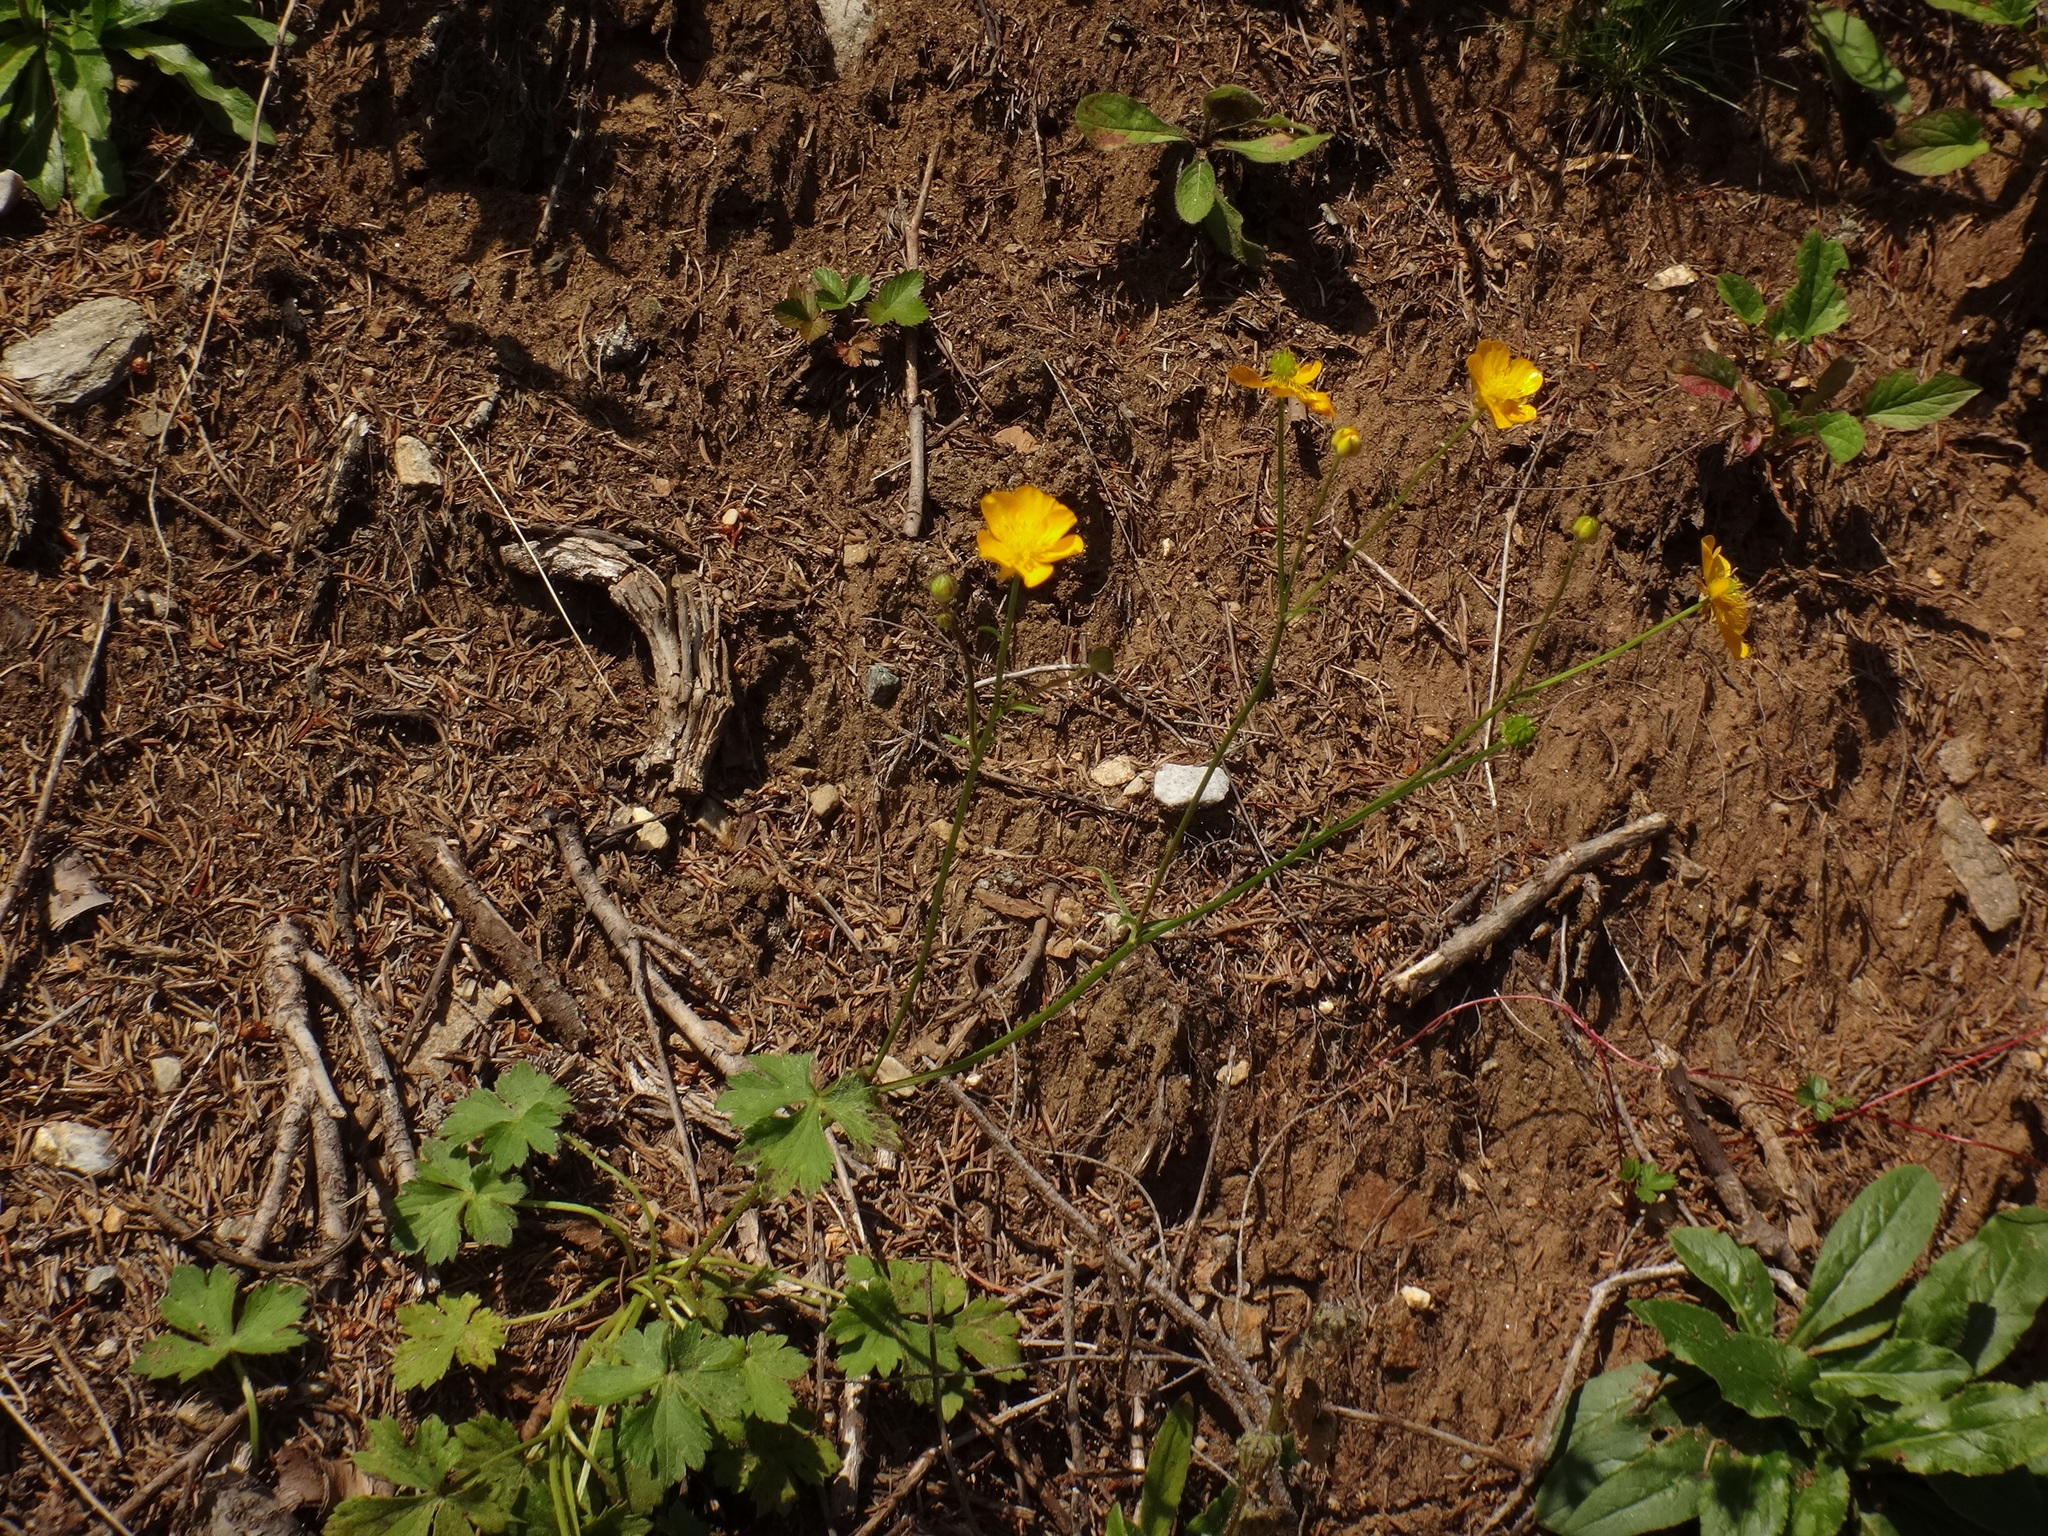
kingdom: Plantae
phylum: Tracheophyta
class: Magnoliopsida
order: Ranunculales
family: Ranunculaceae
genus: Ranunculus
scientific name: Ranunculus
